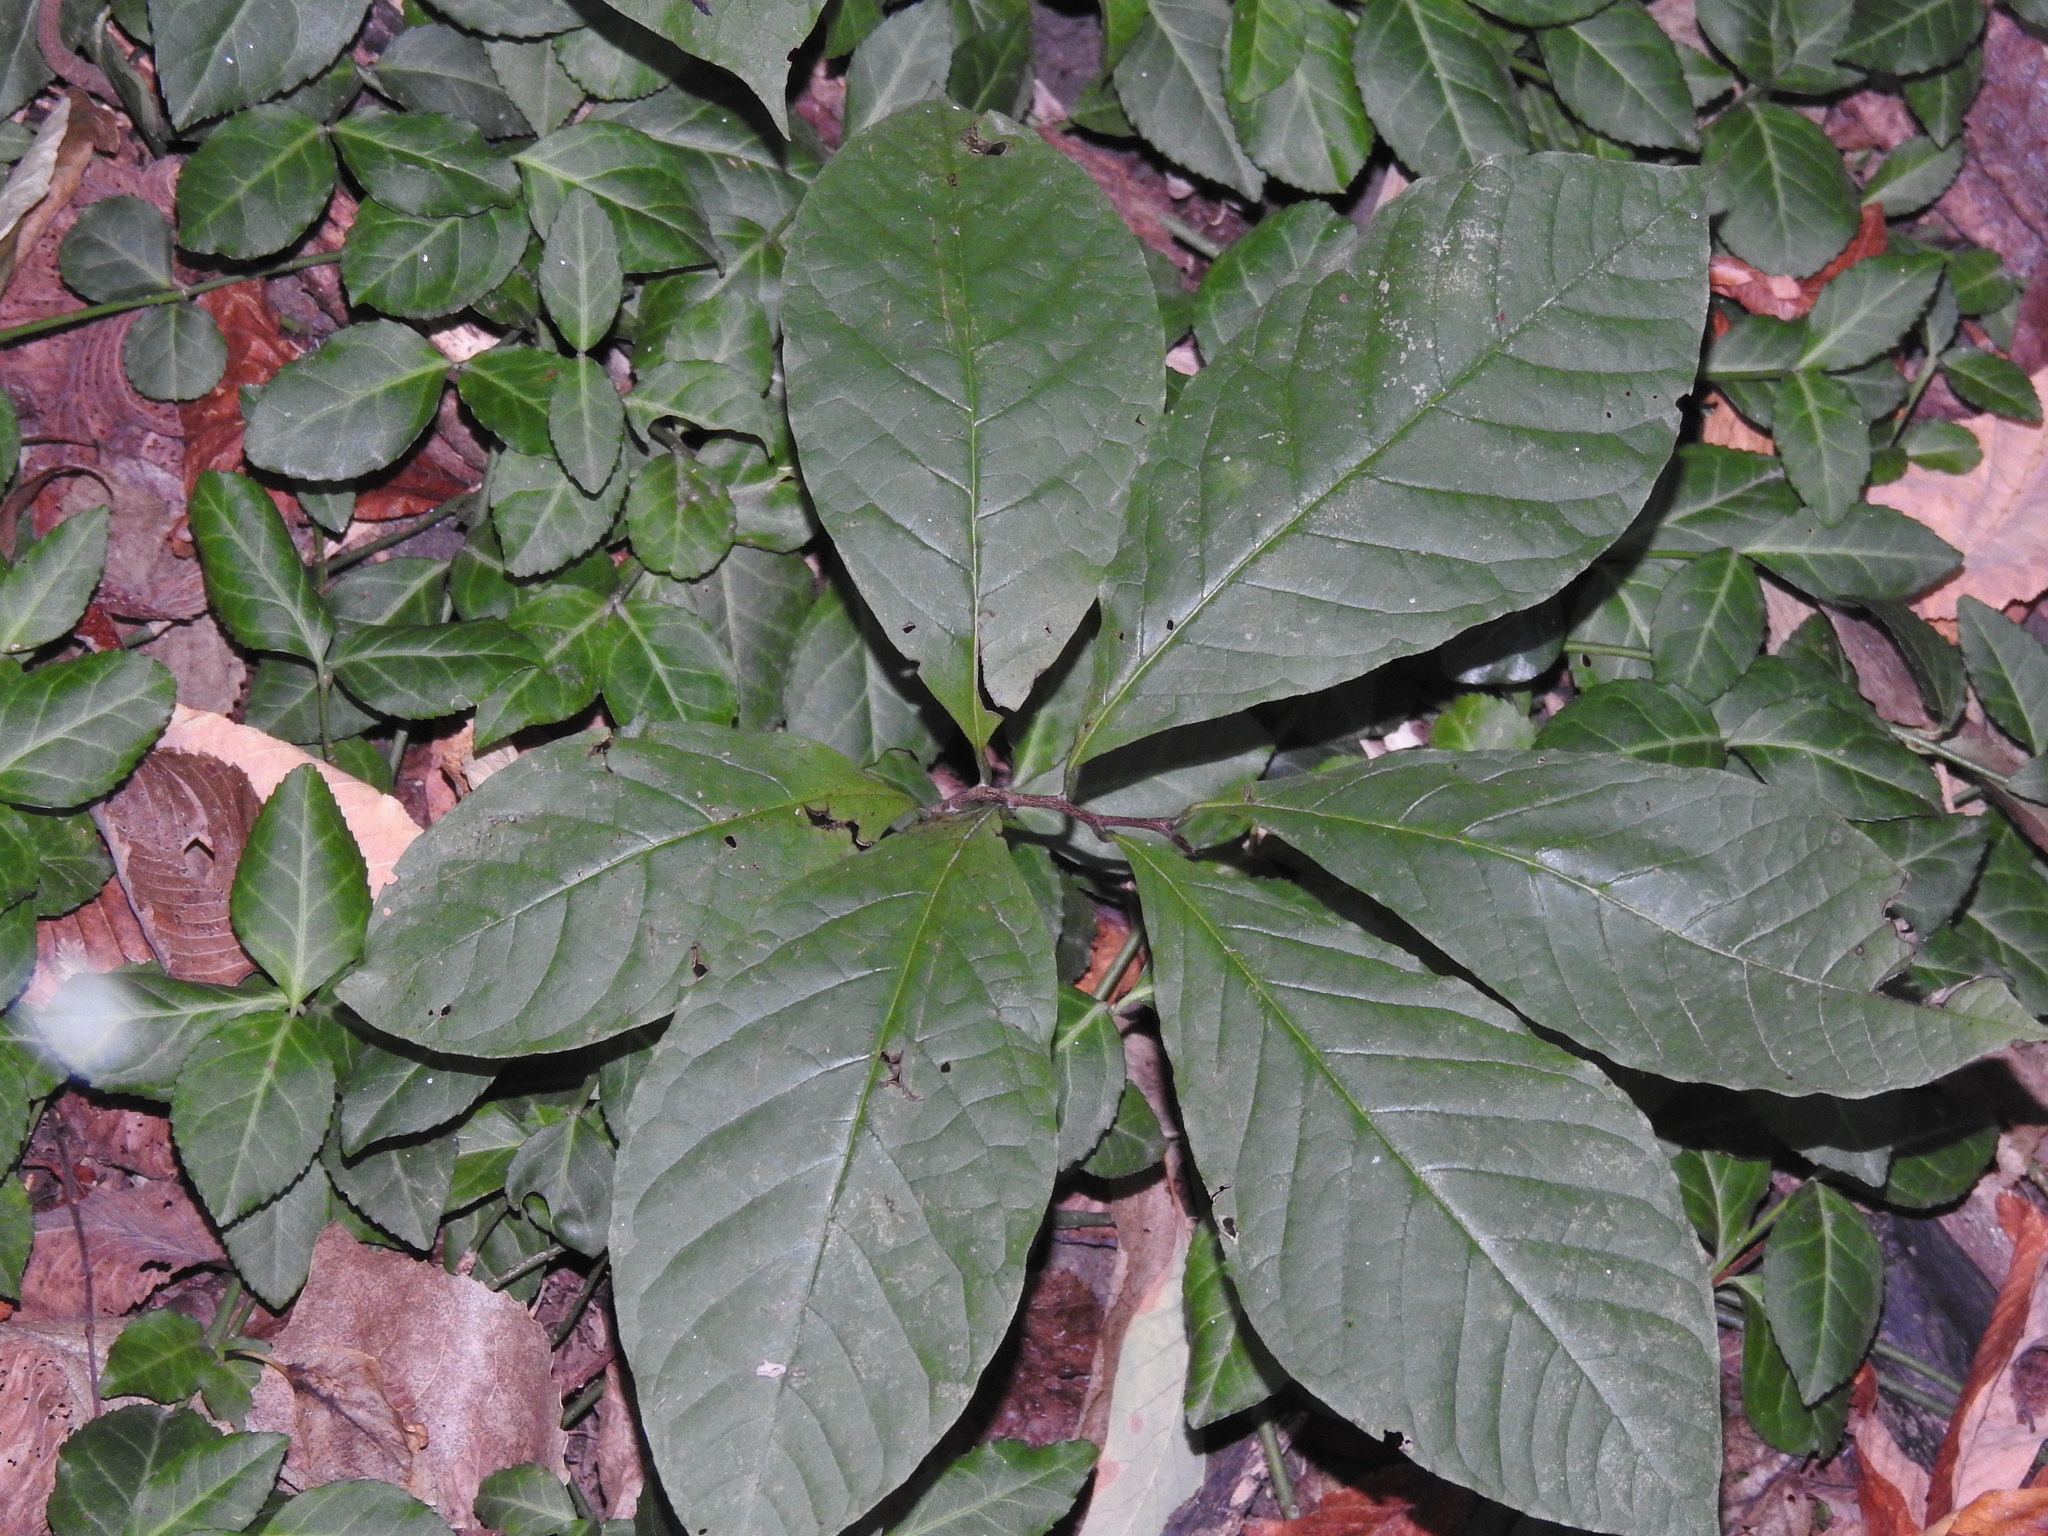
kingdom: Plantae
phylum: Tracheophyta
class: Magnoliopsida
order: Magnoliales
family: Annonaceae
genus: Asimina
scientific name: Asimina triloba
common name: Dog-banana
